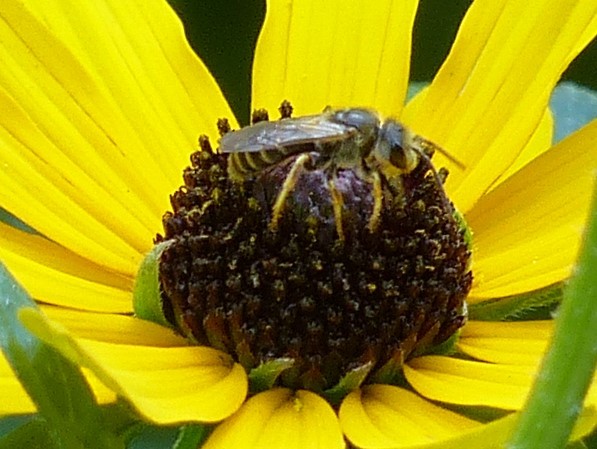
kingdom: Animalia
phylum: Arthropoda
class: Insecta
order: Hymenoptera
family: Halictidae
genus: Halictus
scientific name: Halictus ligatus
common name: Ligated furrow bee
